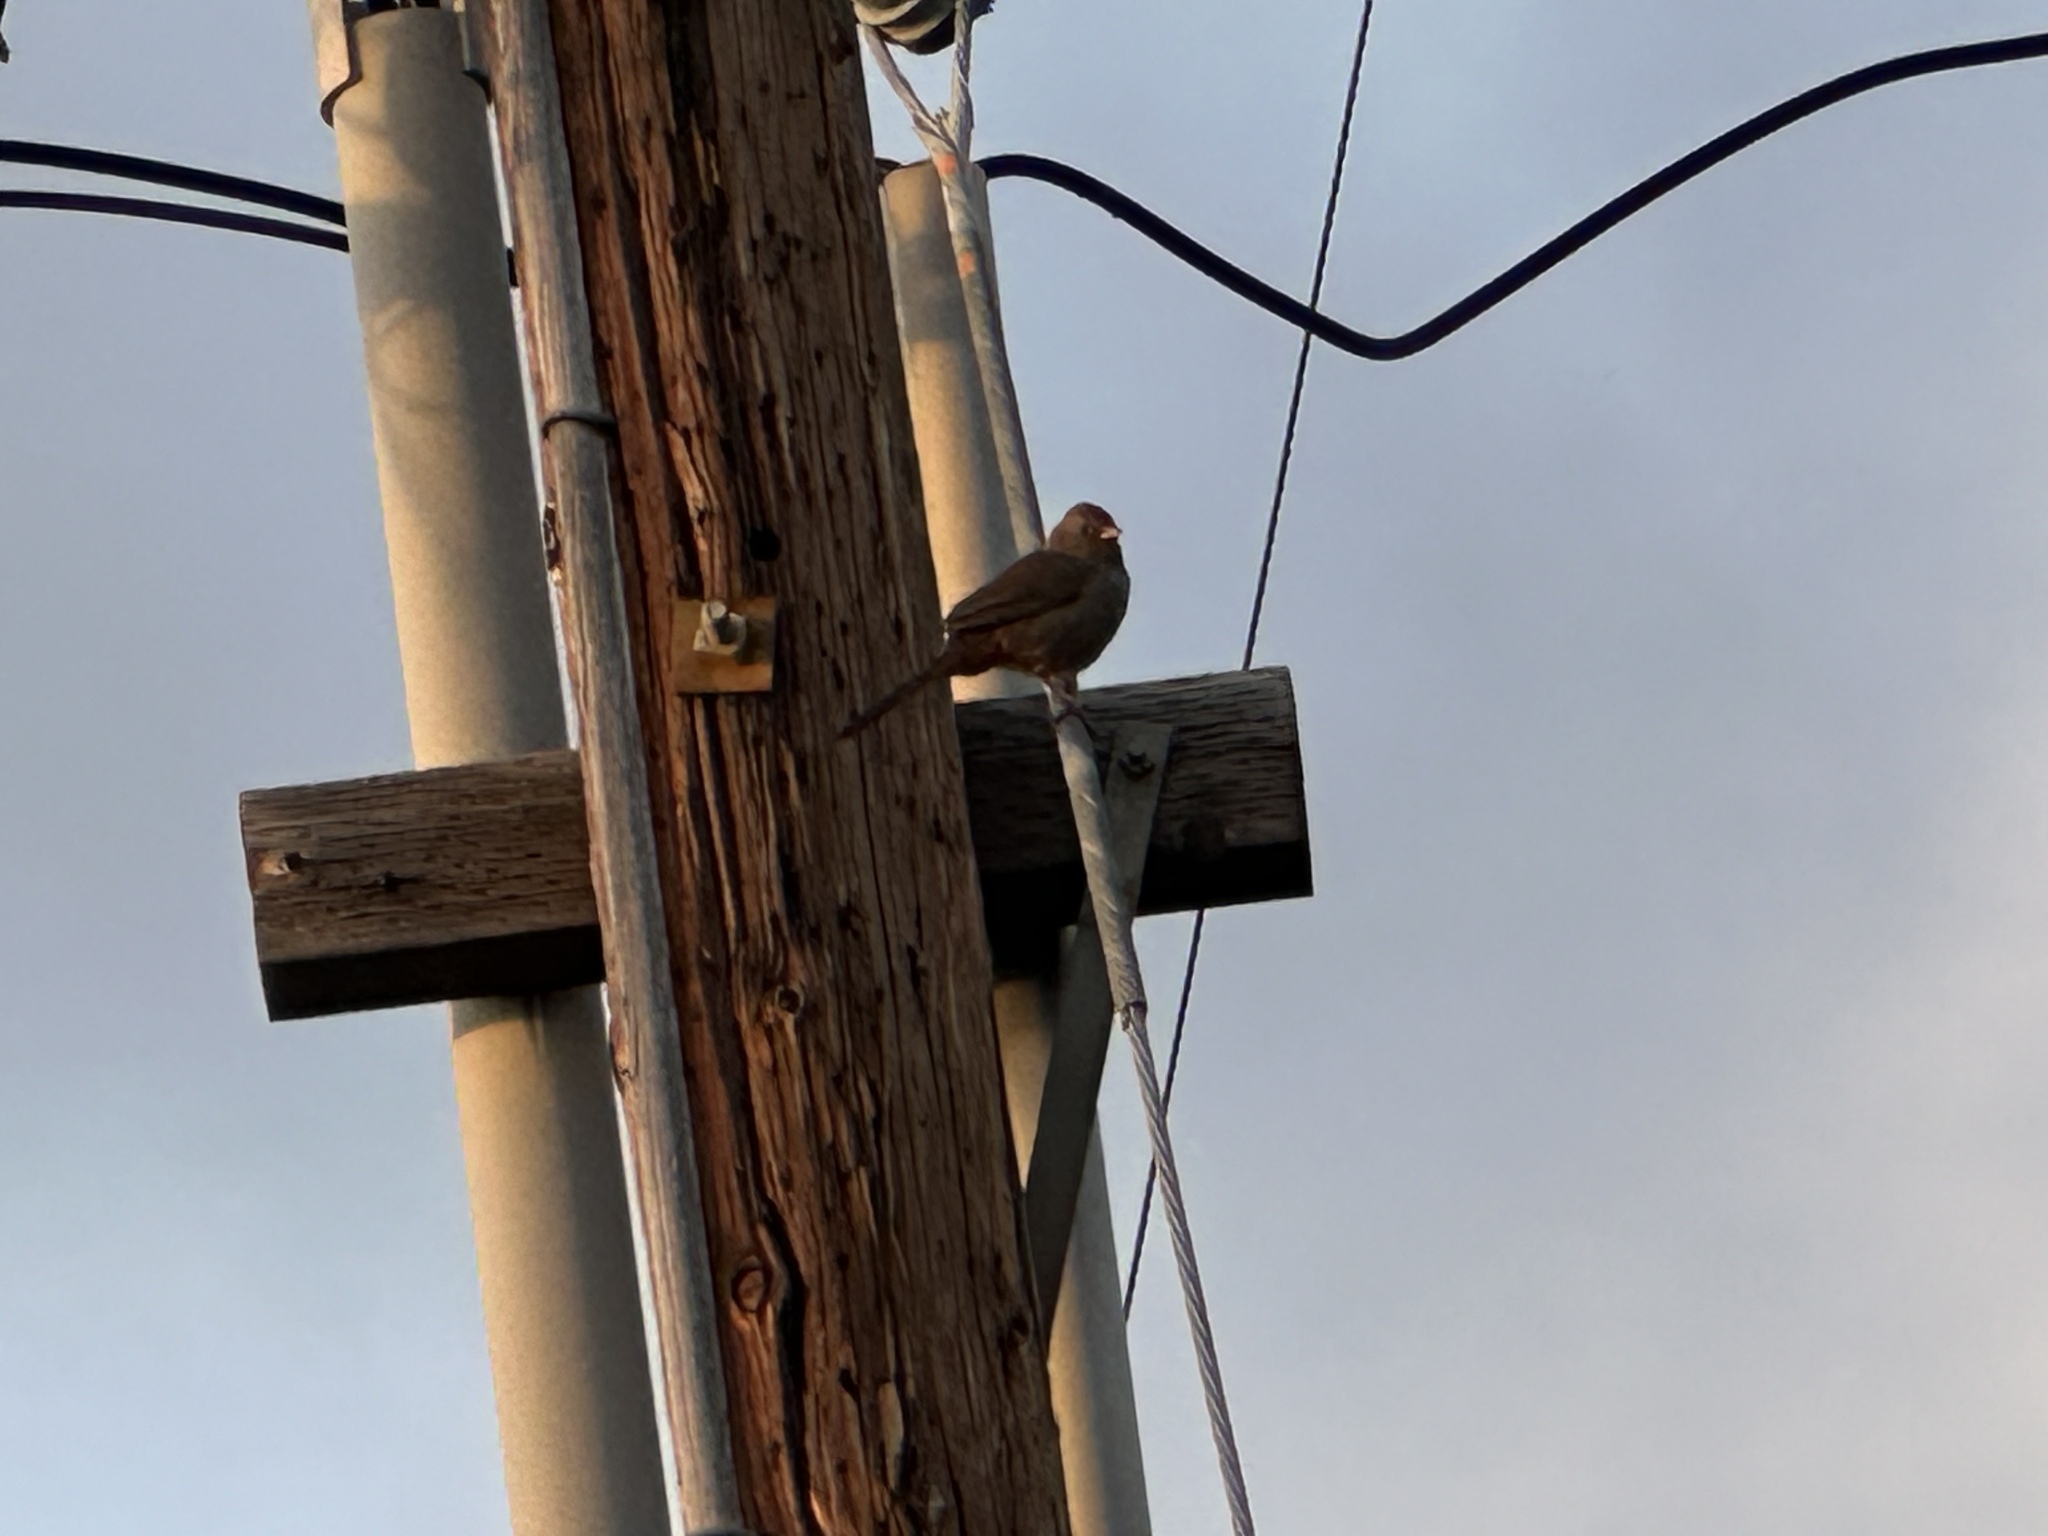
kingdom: Animalia
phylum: Chordata
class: Aves
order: Passeriformes
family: Passerellidae
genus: Melozone
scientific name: Melozone crissalis
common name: California towhee
